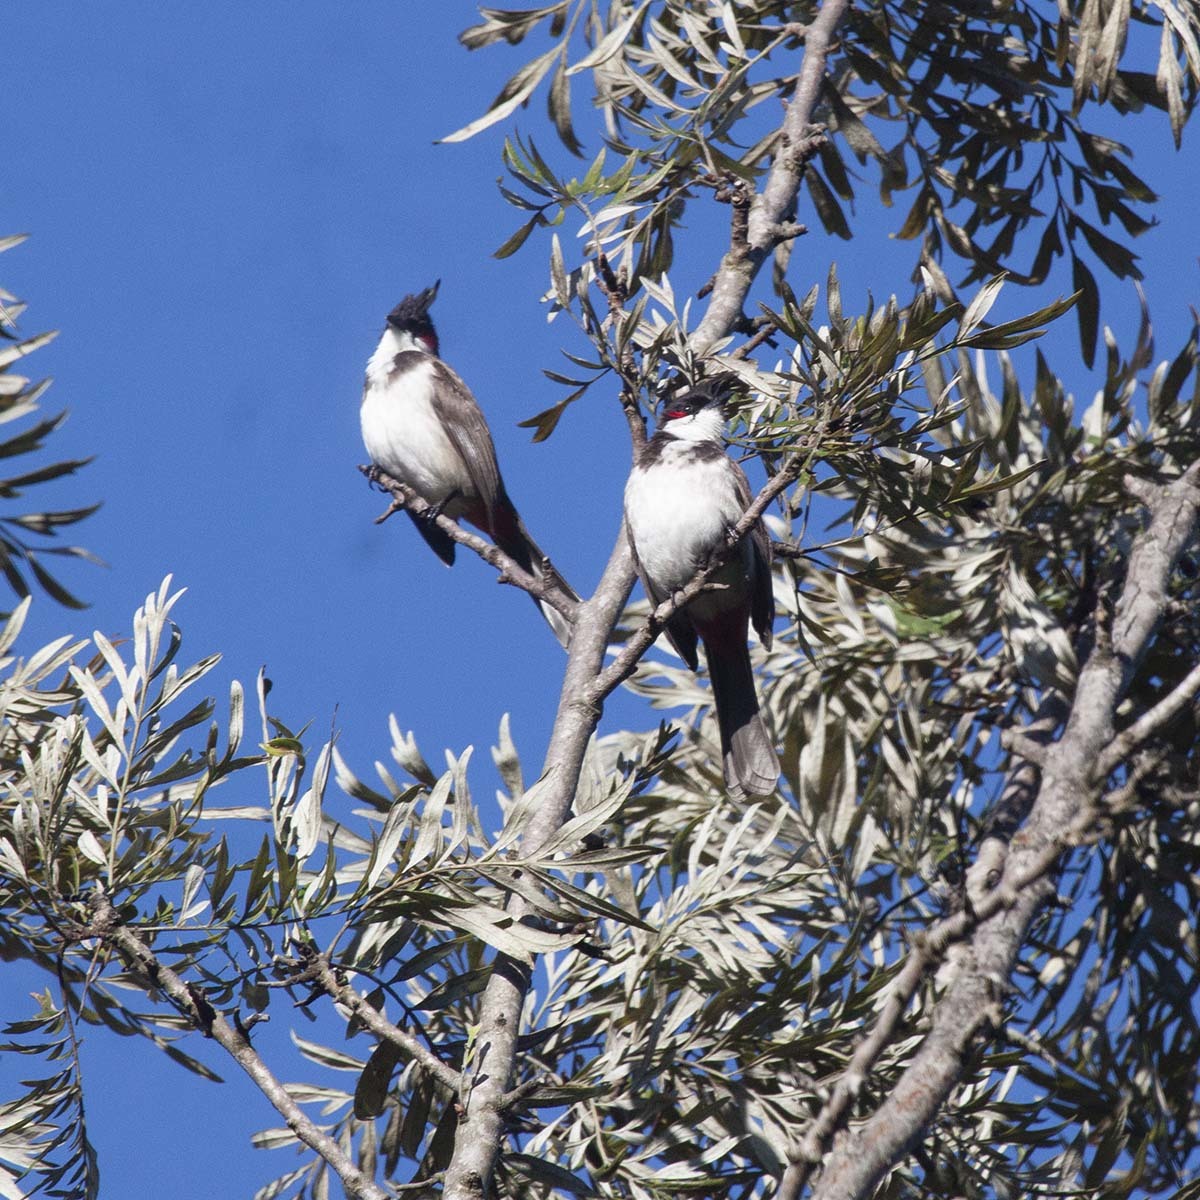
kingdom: Animalia
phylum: Chordata
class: Aves
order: Passeriformes
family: Pycnonotidae
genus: Pycnonotus
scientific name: Pycnonotus jocosus
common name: Red-whiskered bulbul
